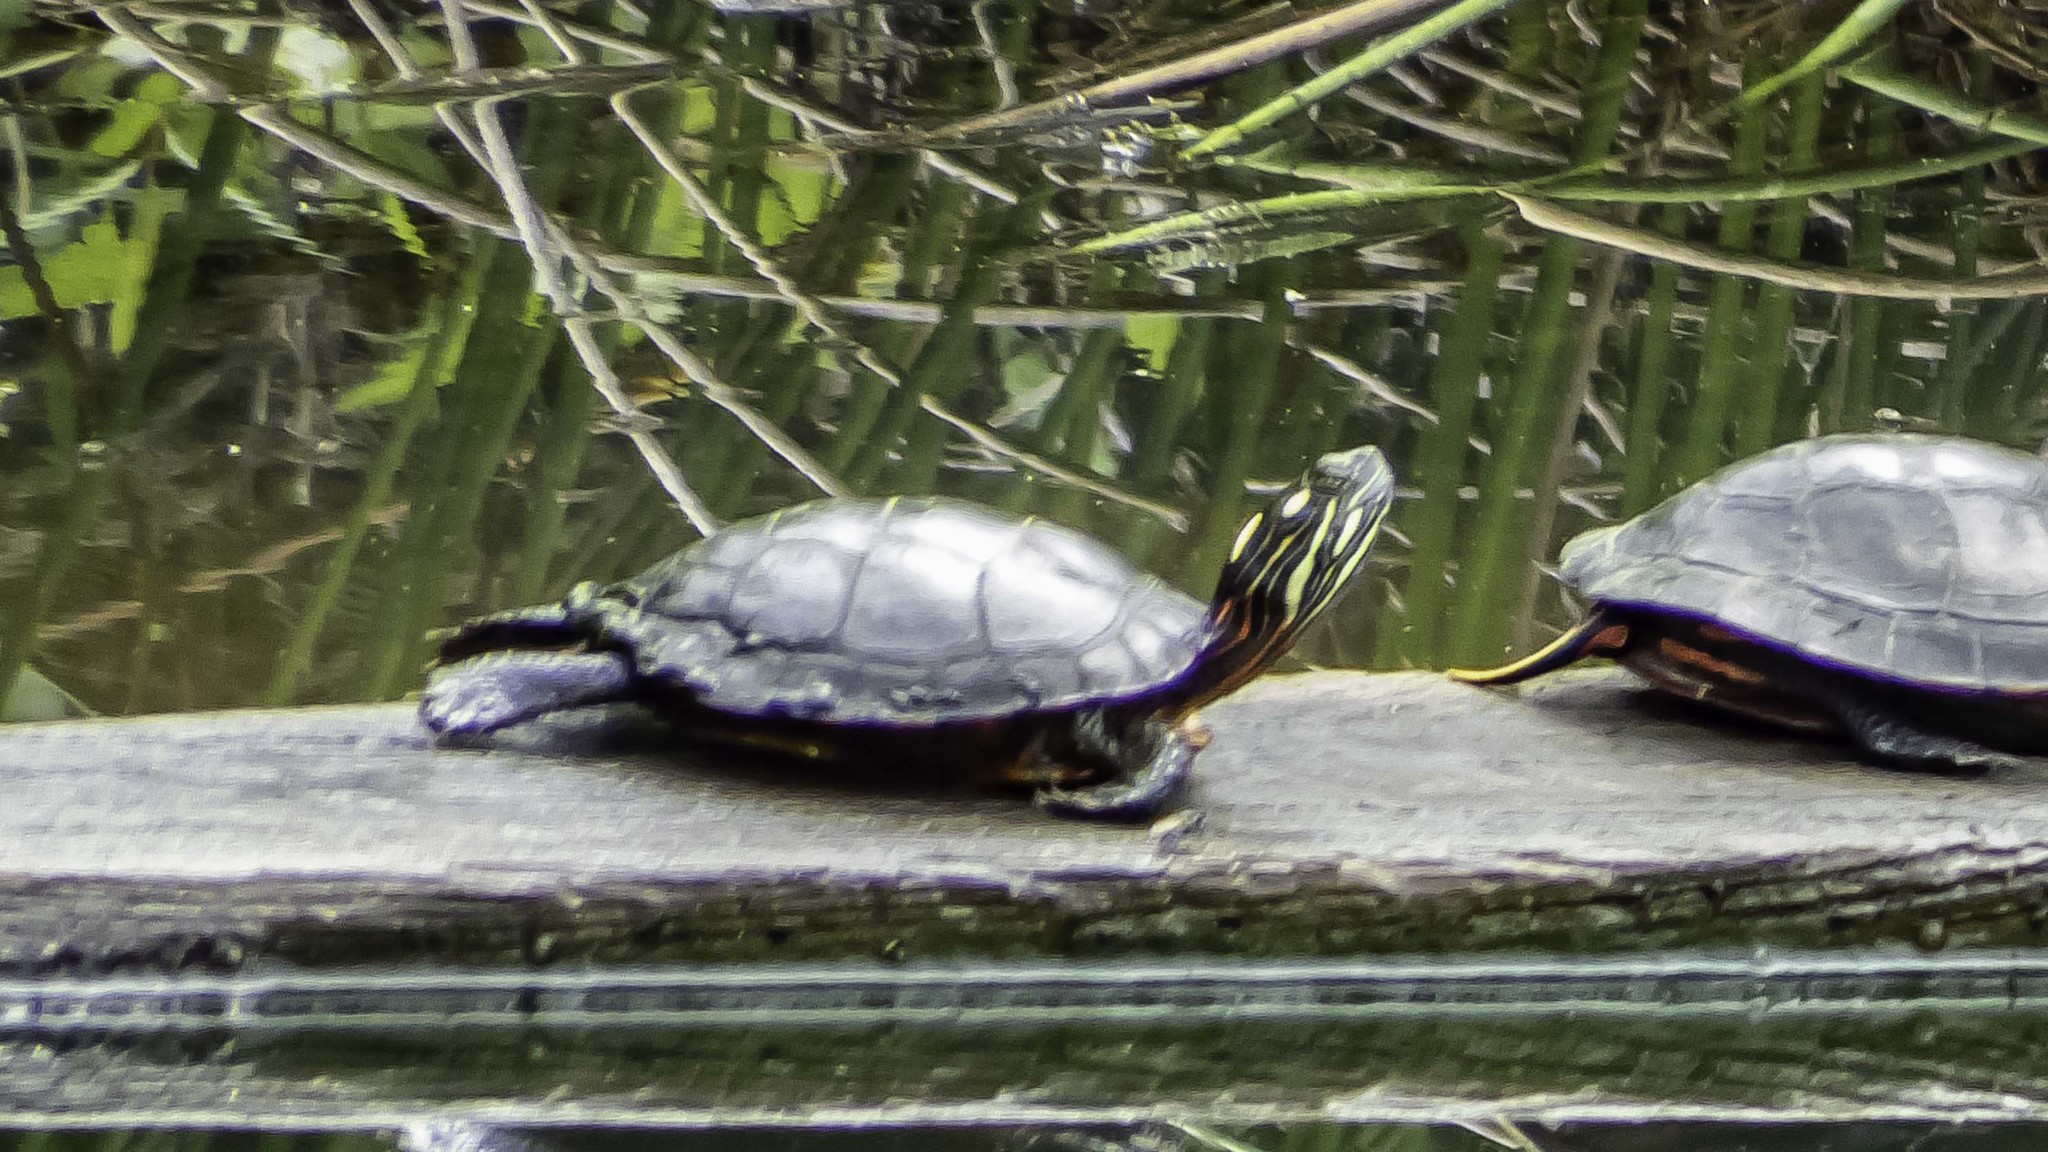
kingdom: Animalia
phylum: Chordata
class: Testudines
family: Emydidae
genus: Chrysemys
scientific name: Chrysemys picta
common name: Painted turtle
